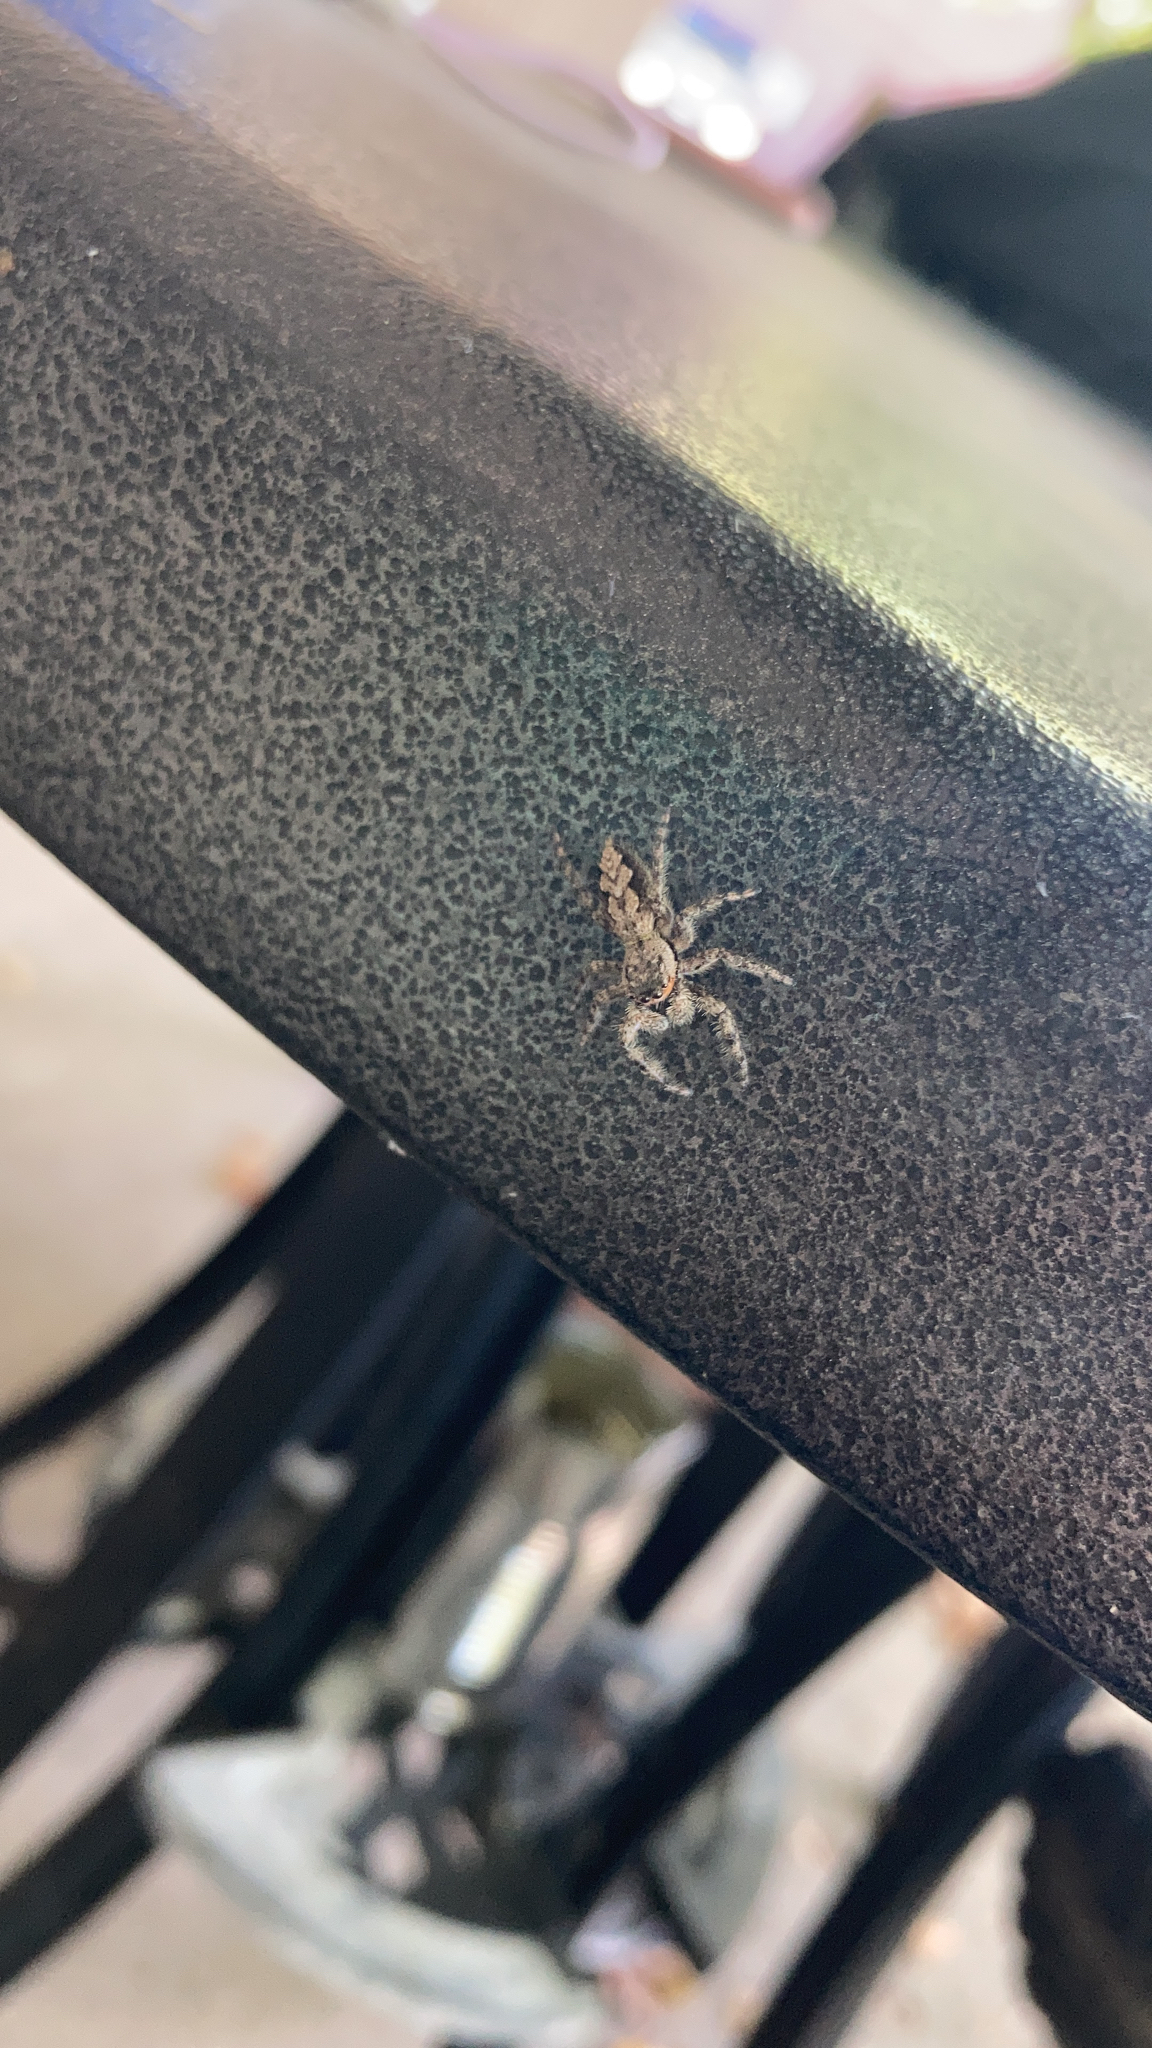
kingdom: Animalia
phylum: Arthropoda
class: Arachnida
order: Araneae
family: Salticidae
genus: Platycryptus
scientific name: Platycryptus undatus
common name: Tan jumping spider
